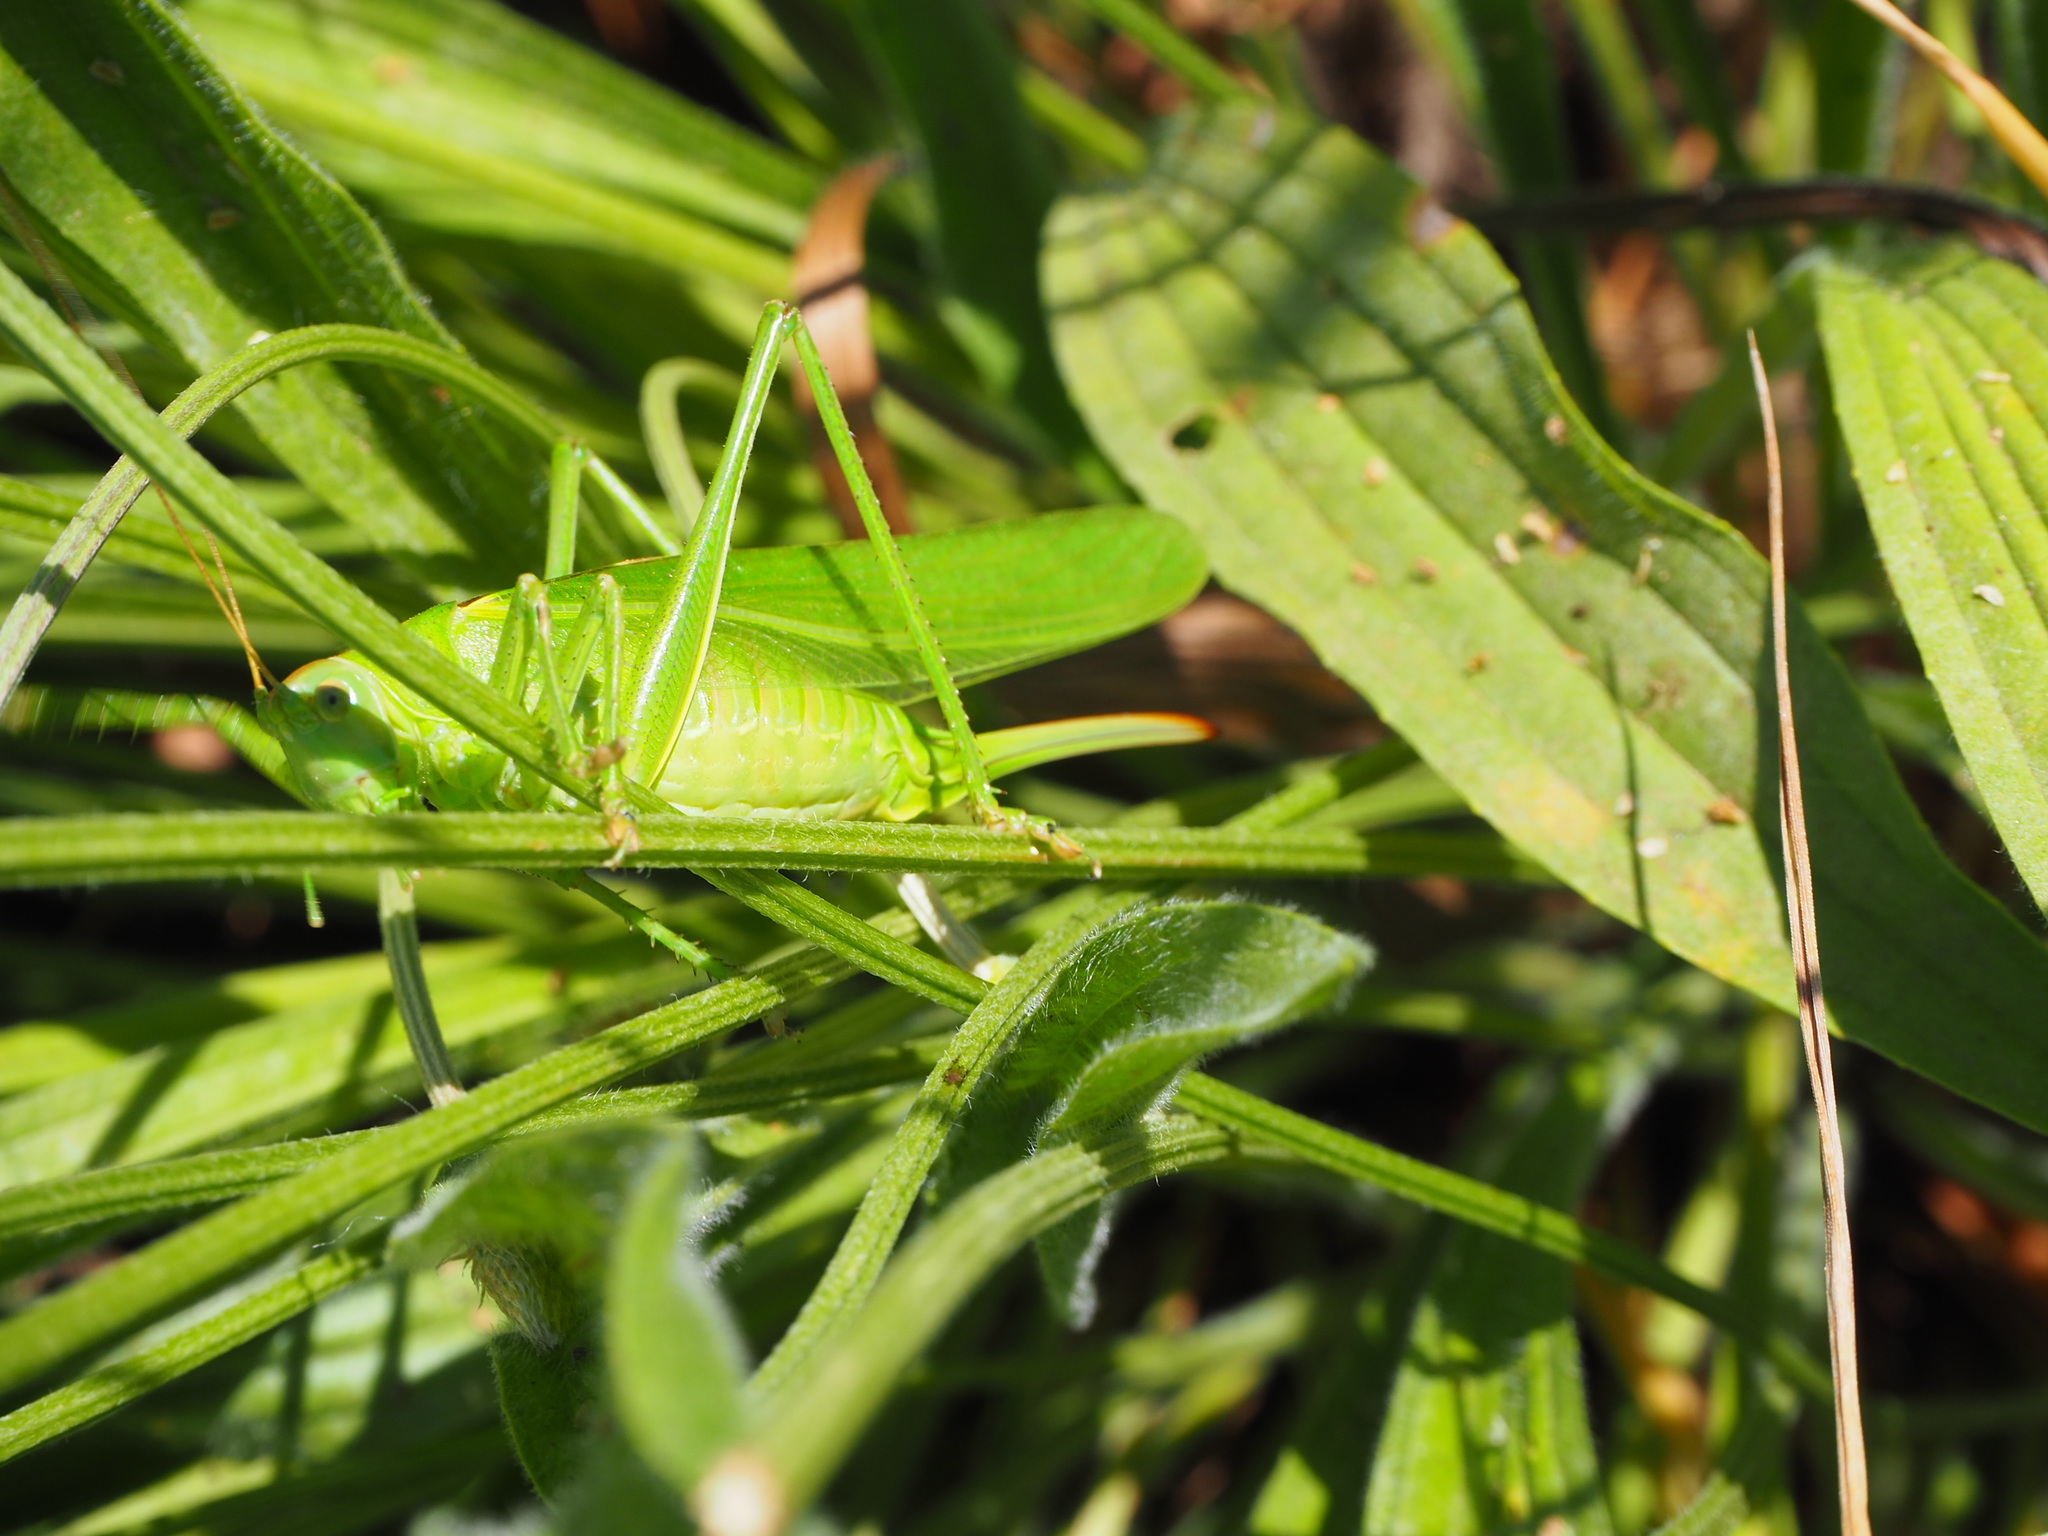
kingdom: Animalia
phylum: Arthropoda
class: Insecta
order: Orthoptera
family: Tettigoniidae
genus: Tettigonia
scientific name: Tettigonia viridissima
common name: Great green bush-cricket
